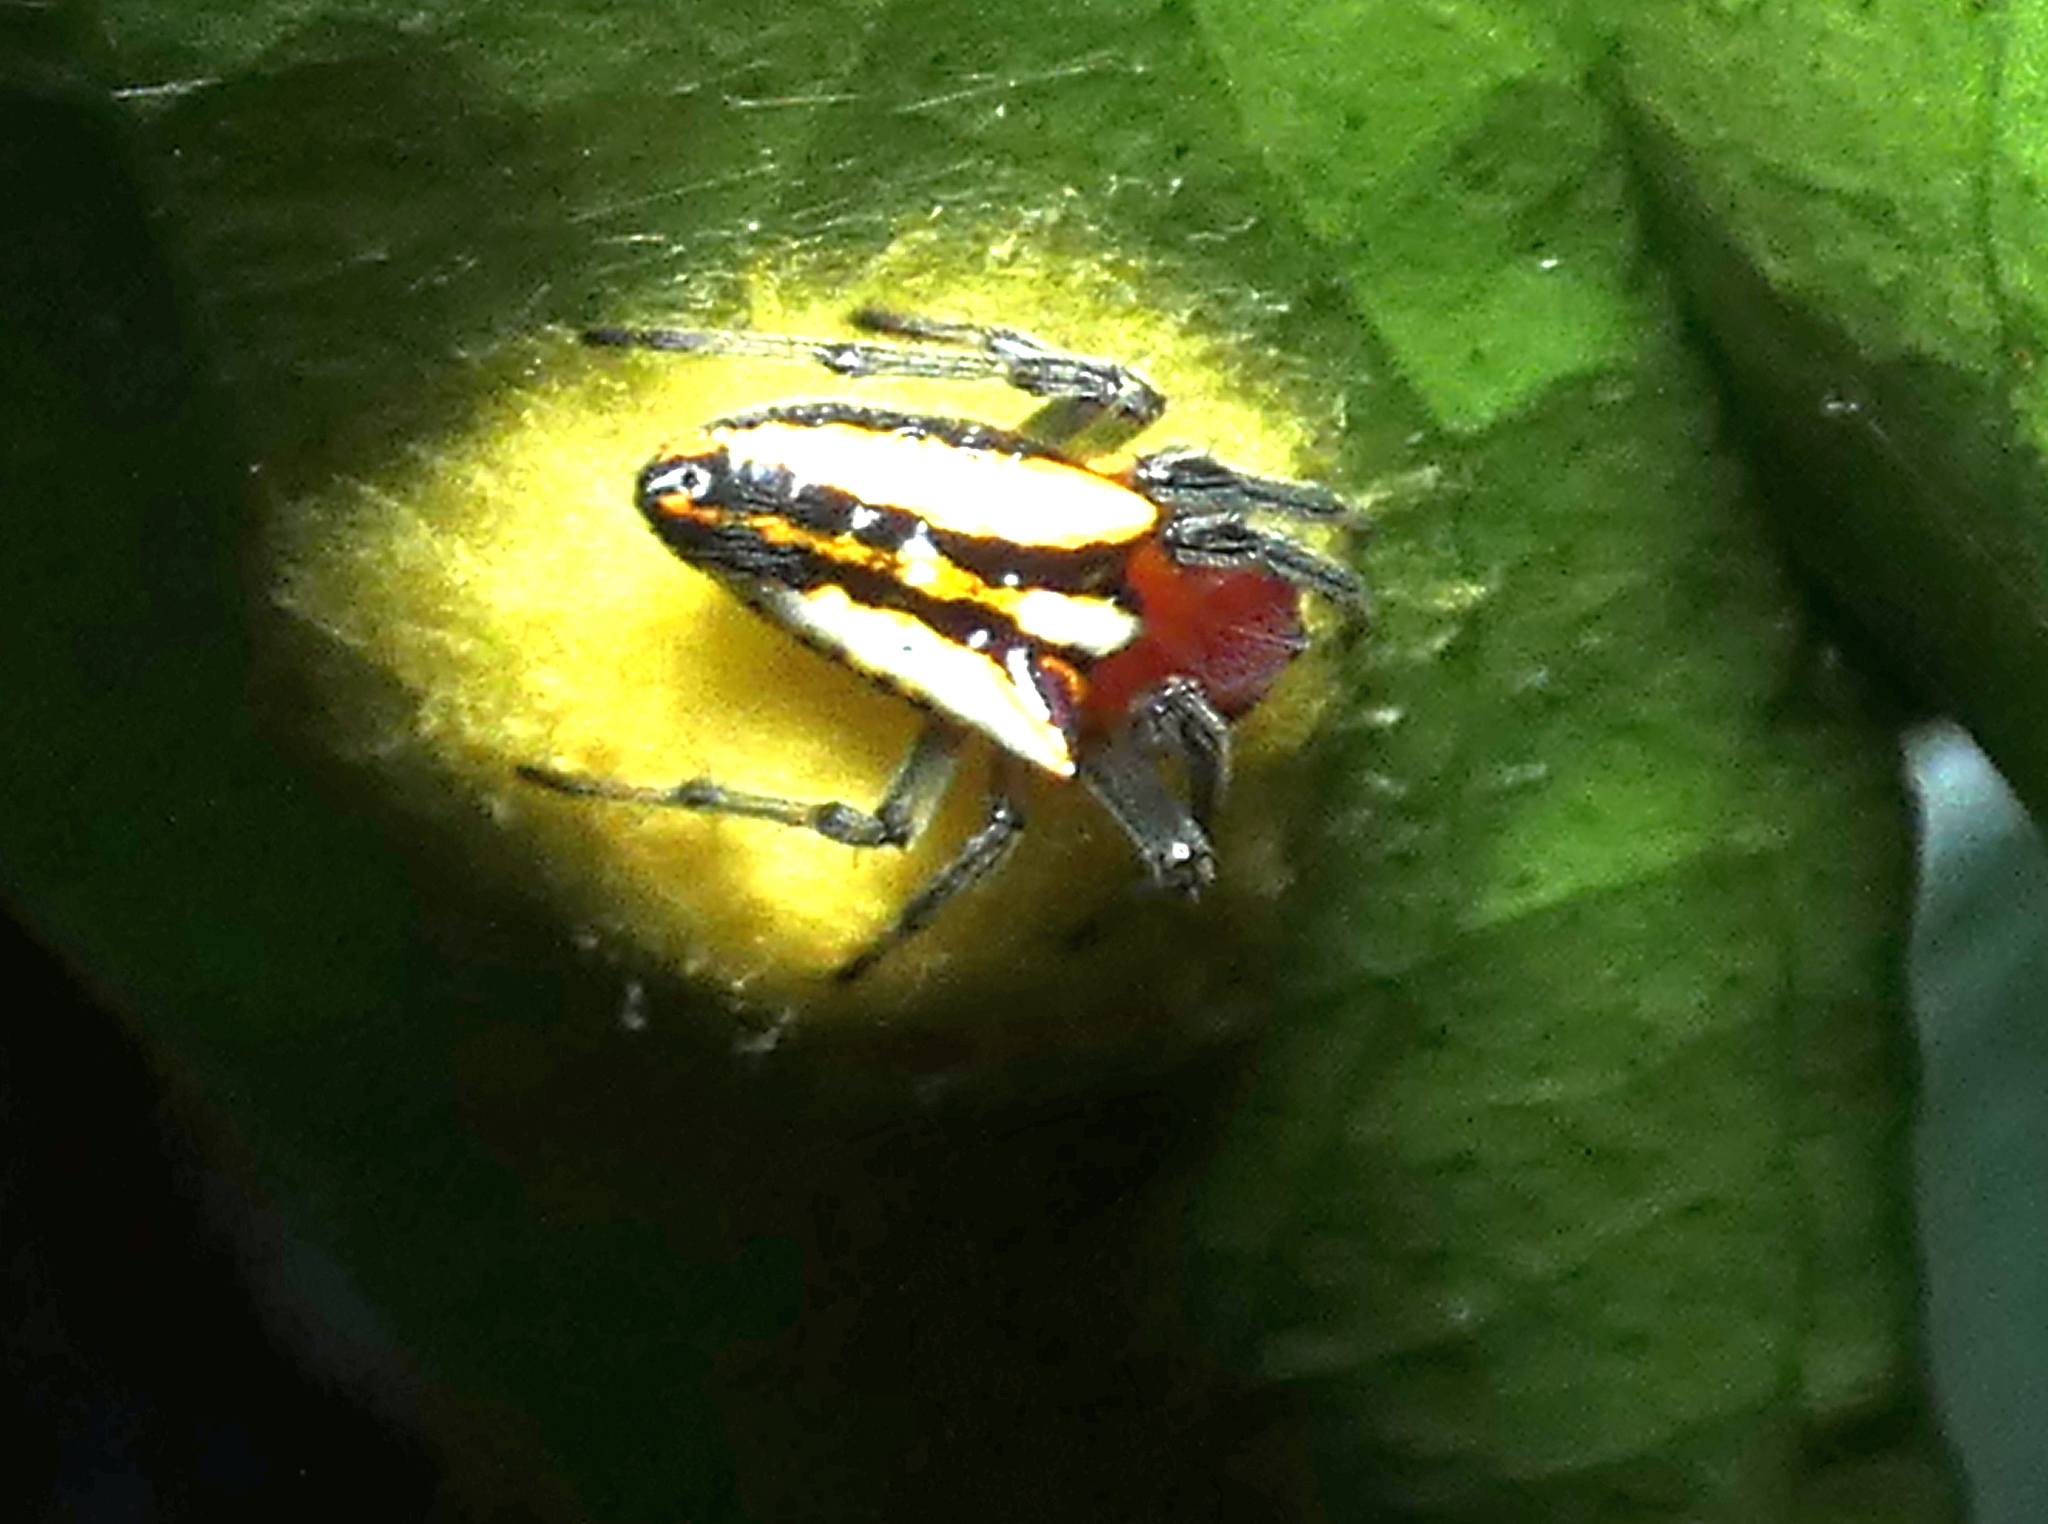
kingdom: Animalia
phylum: Arthropoda
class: Arachnida
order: Araneae
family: Araneidae
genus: Alpaida
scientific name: Alpaida bicornuta
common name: Orb weavers
